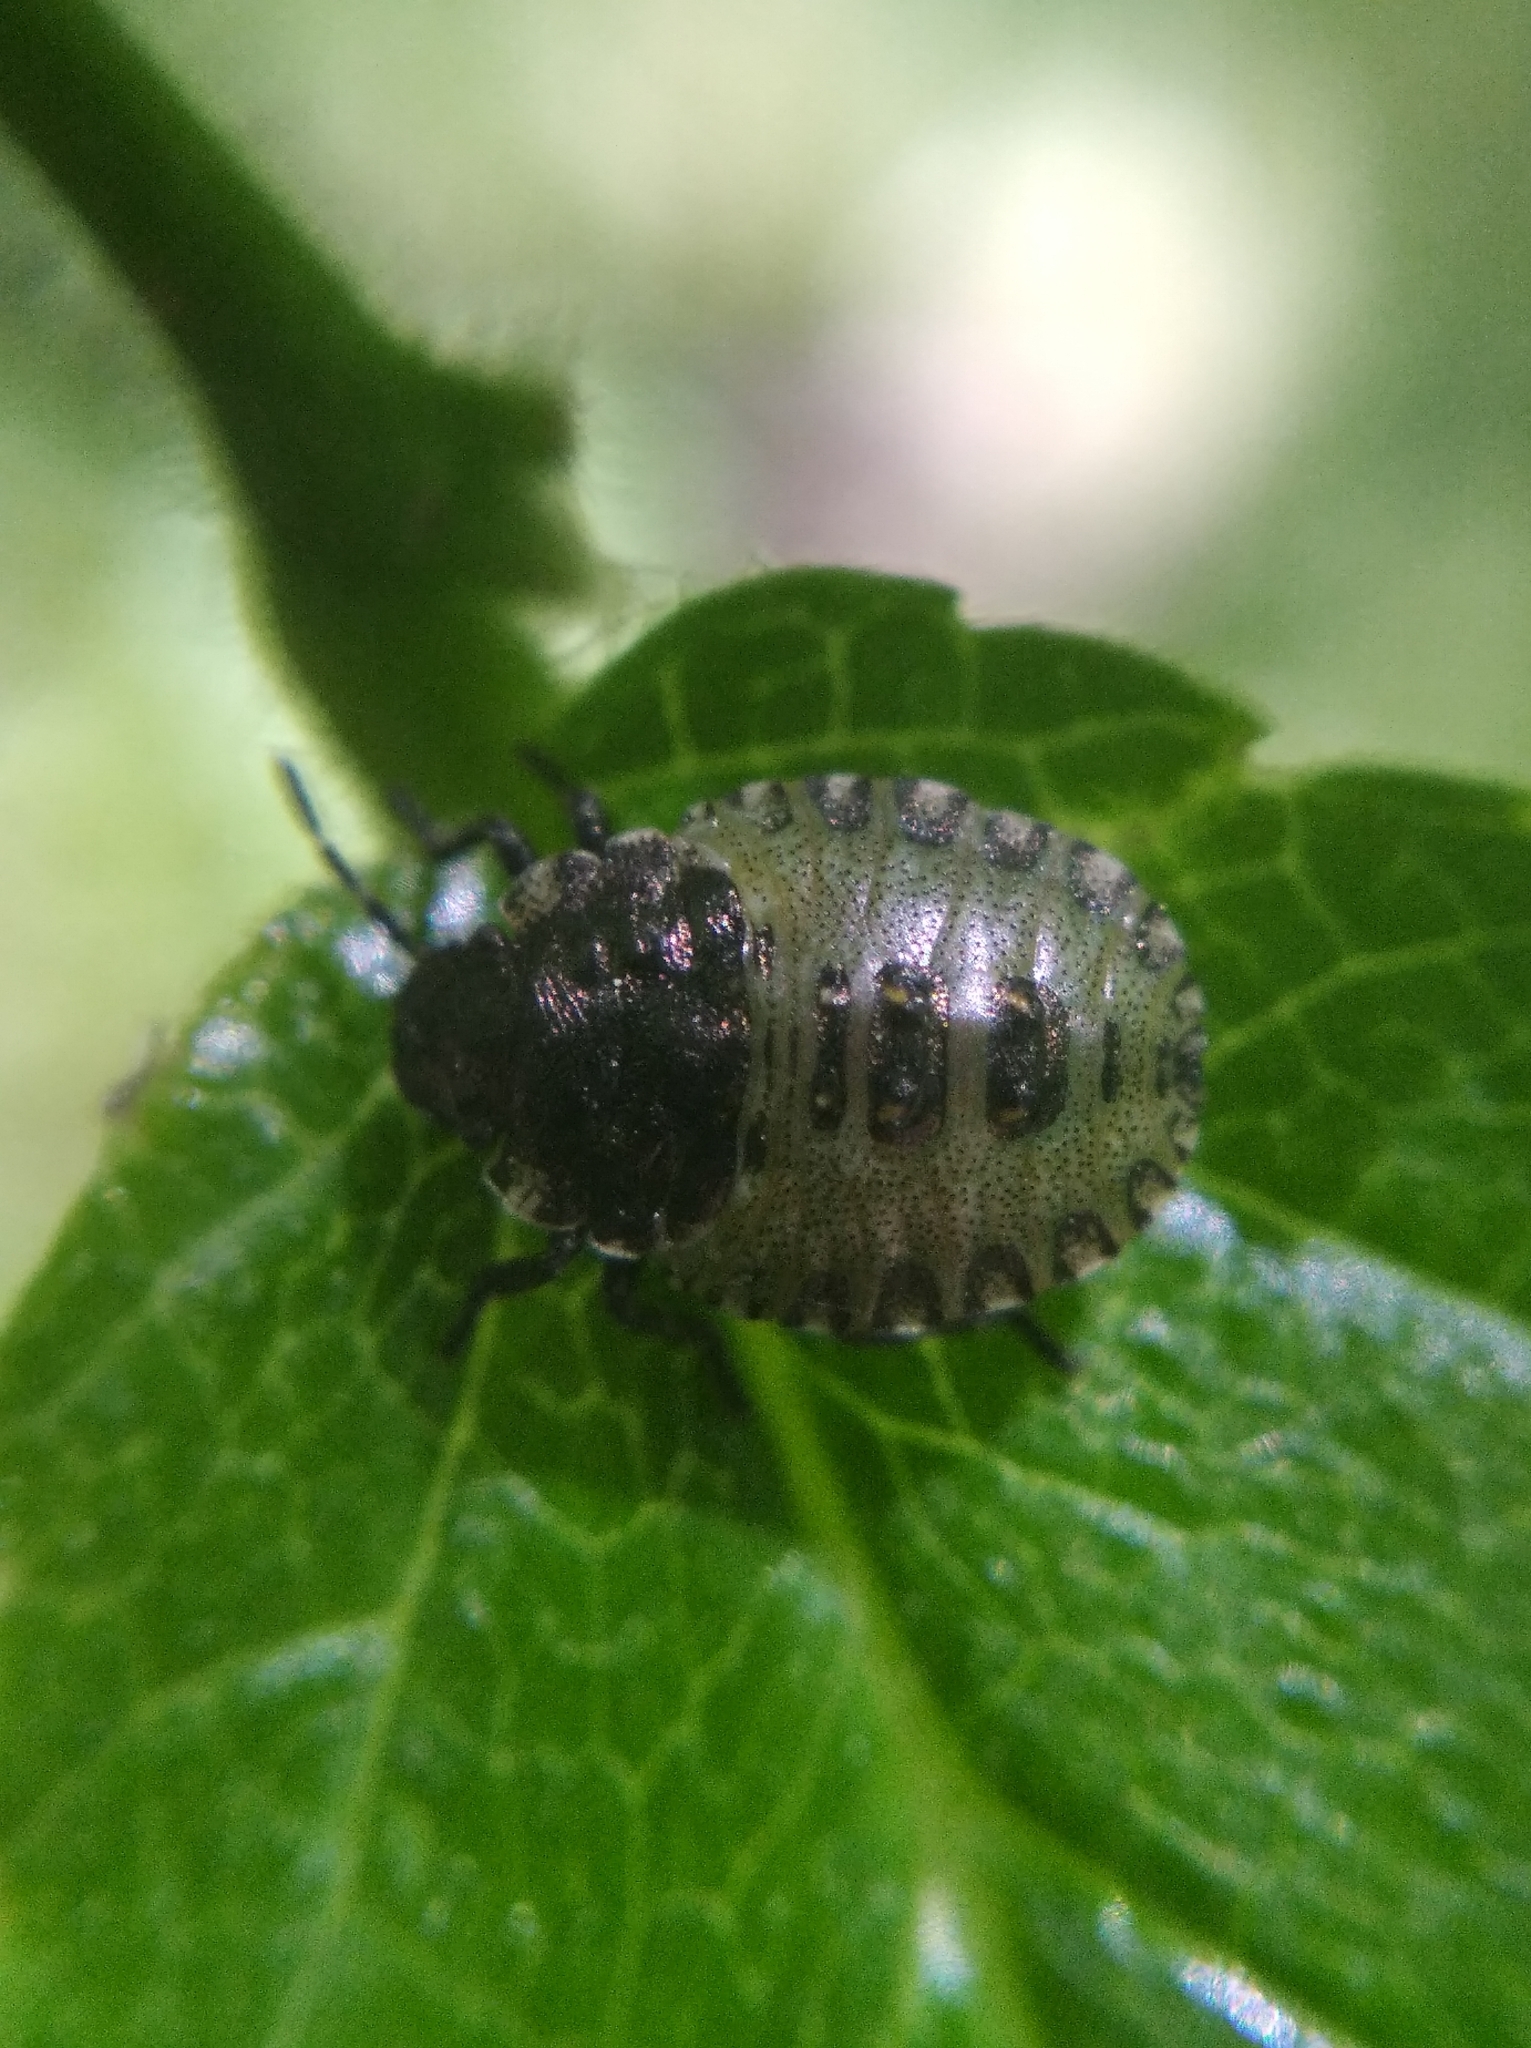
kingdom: Animalia
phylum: Arthropoda
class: Insecta
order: Hemiptera
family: Pentatomidae
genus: Pentatoma
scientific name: Pentatoma rufipes
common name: Forest bug
